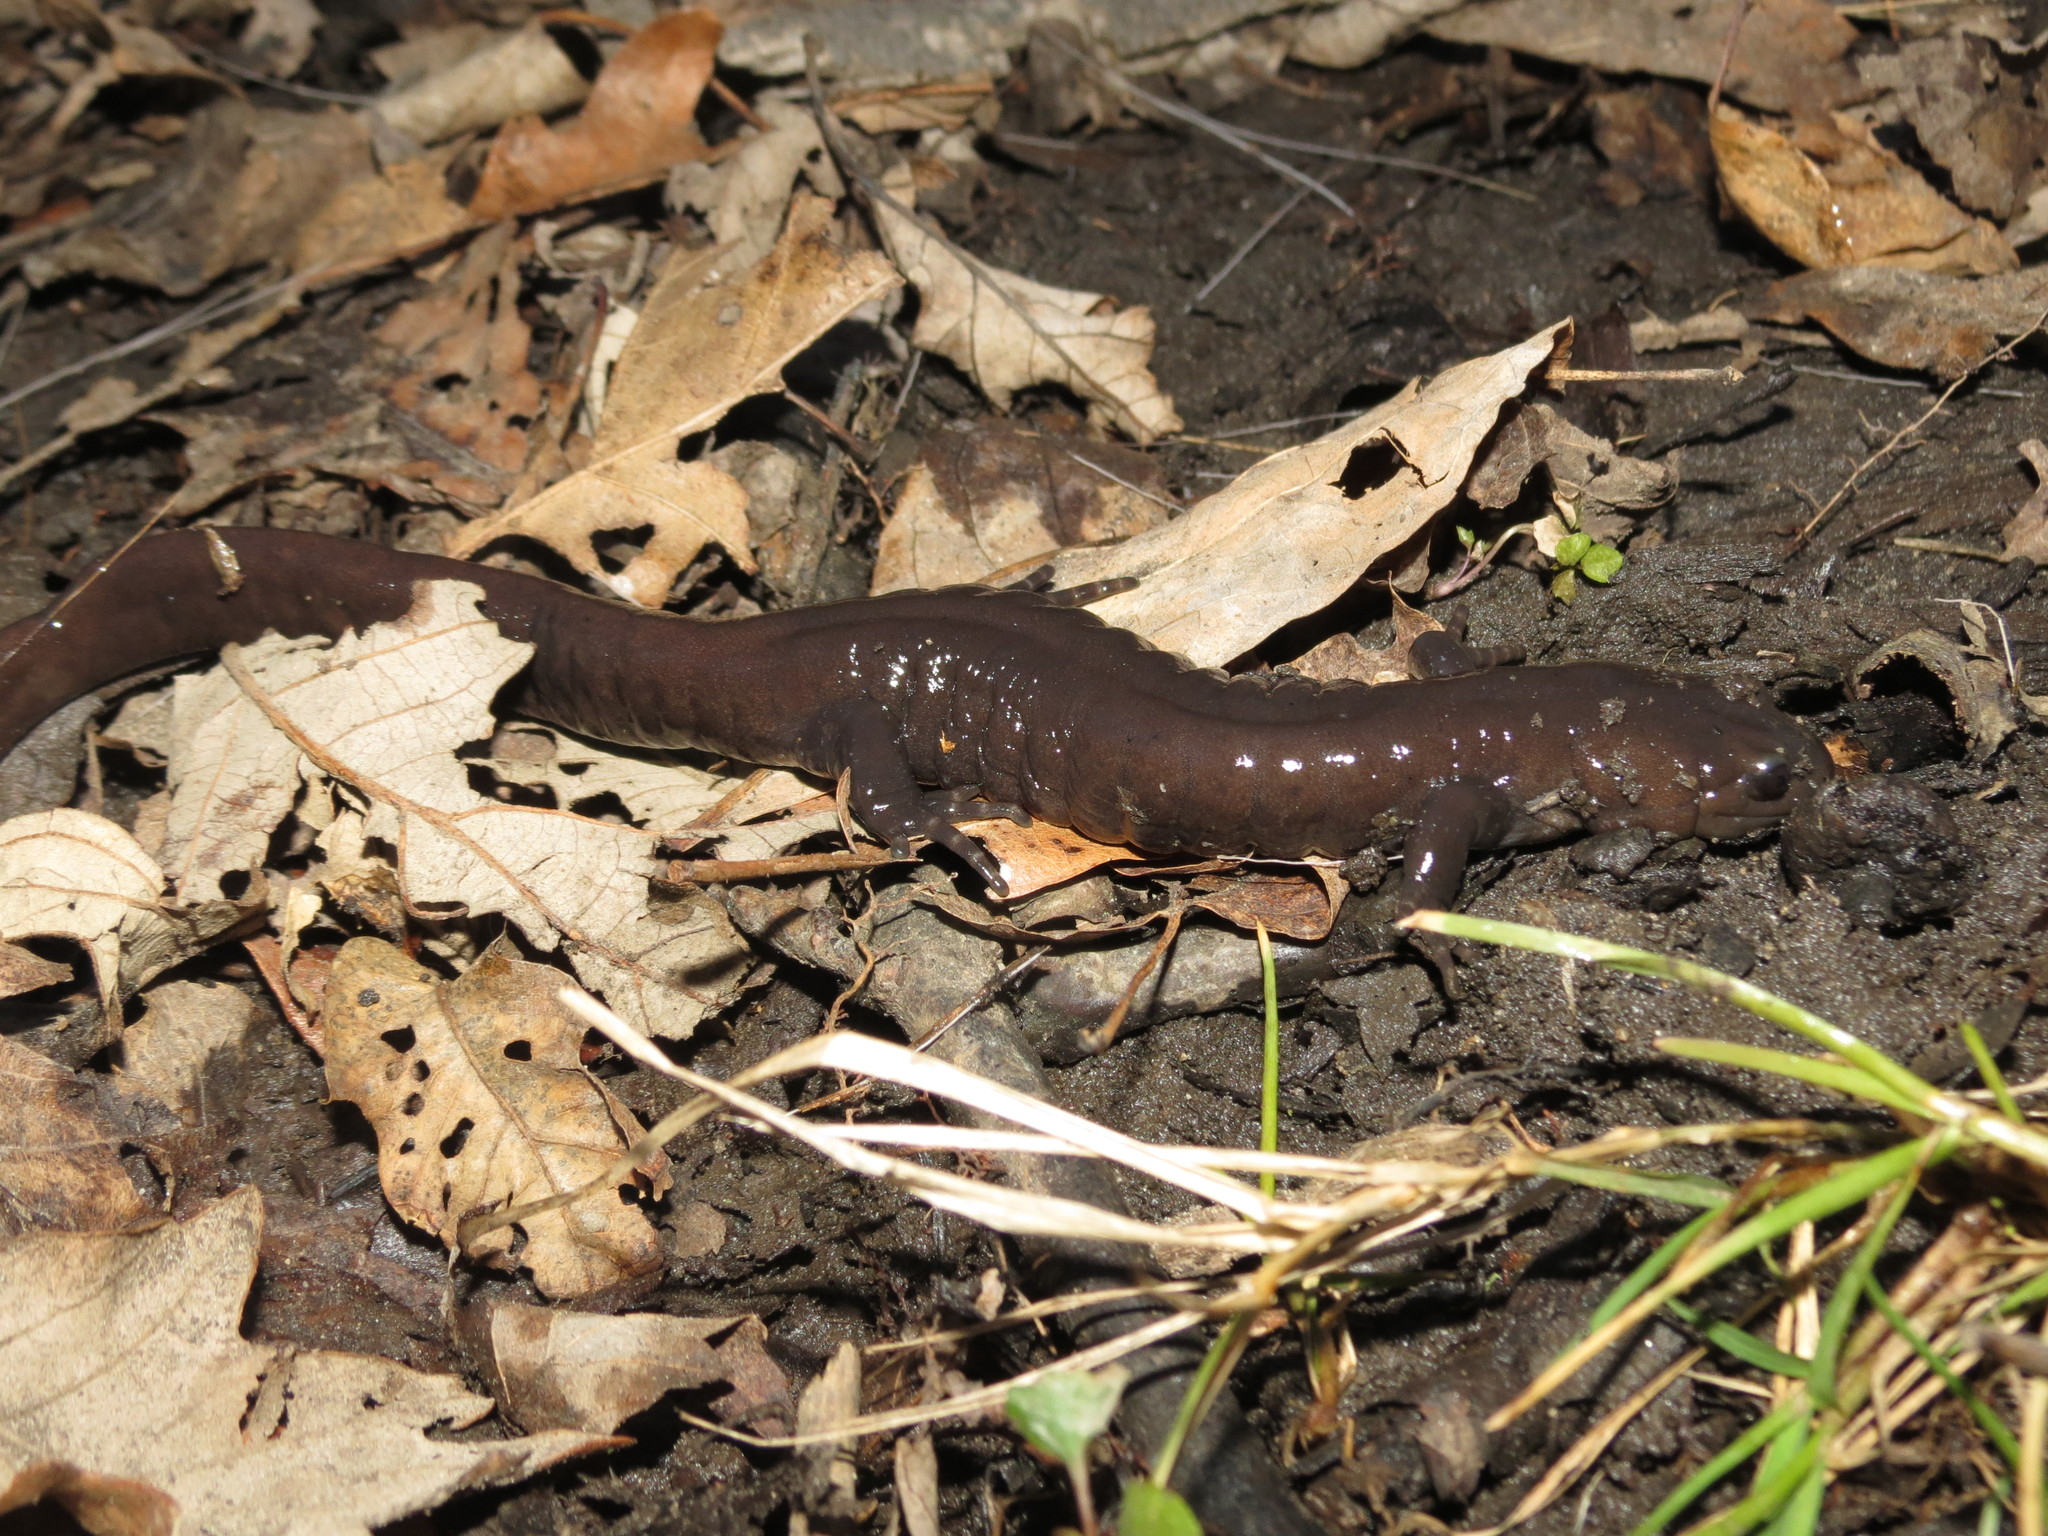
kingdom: Animalia
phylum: Chordata
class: Amphibia
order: Caudata
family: Ambystomatidae
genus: Ambystoma
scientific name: Ambystoma jeffersonianum
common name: Jefferson salamander
